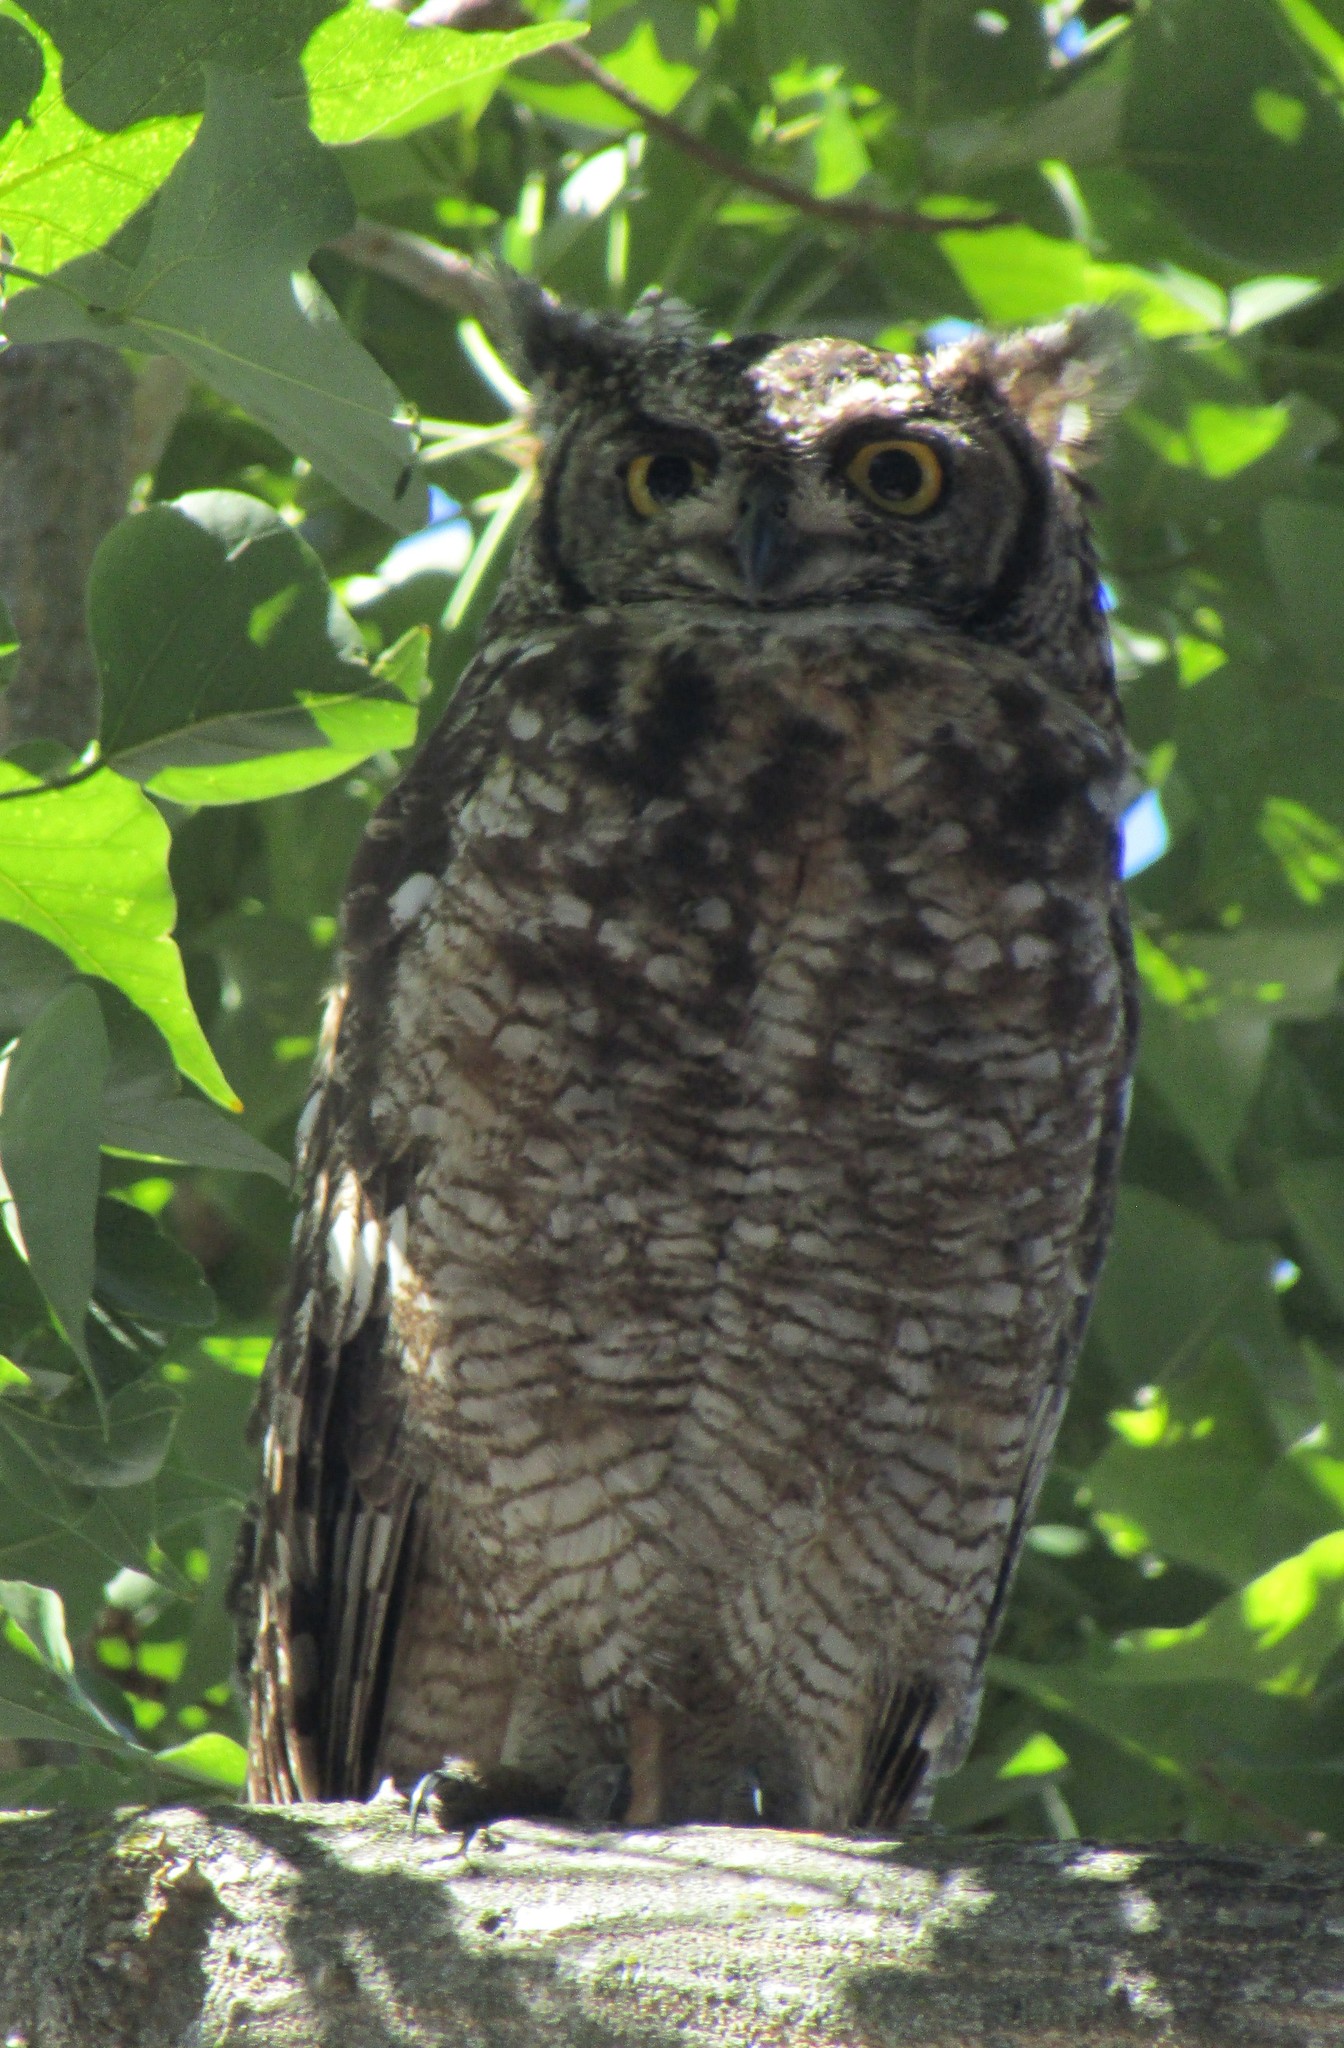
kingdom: Animalia
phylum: Chordata
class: Aves
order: Strigiformes
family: Strigidae
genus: Bubo
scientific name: Bubo africanus
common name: Spotted eagle-owl
